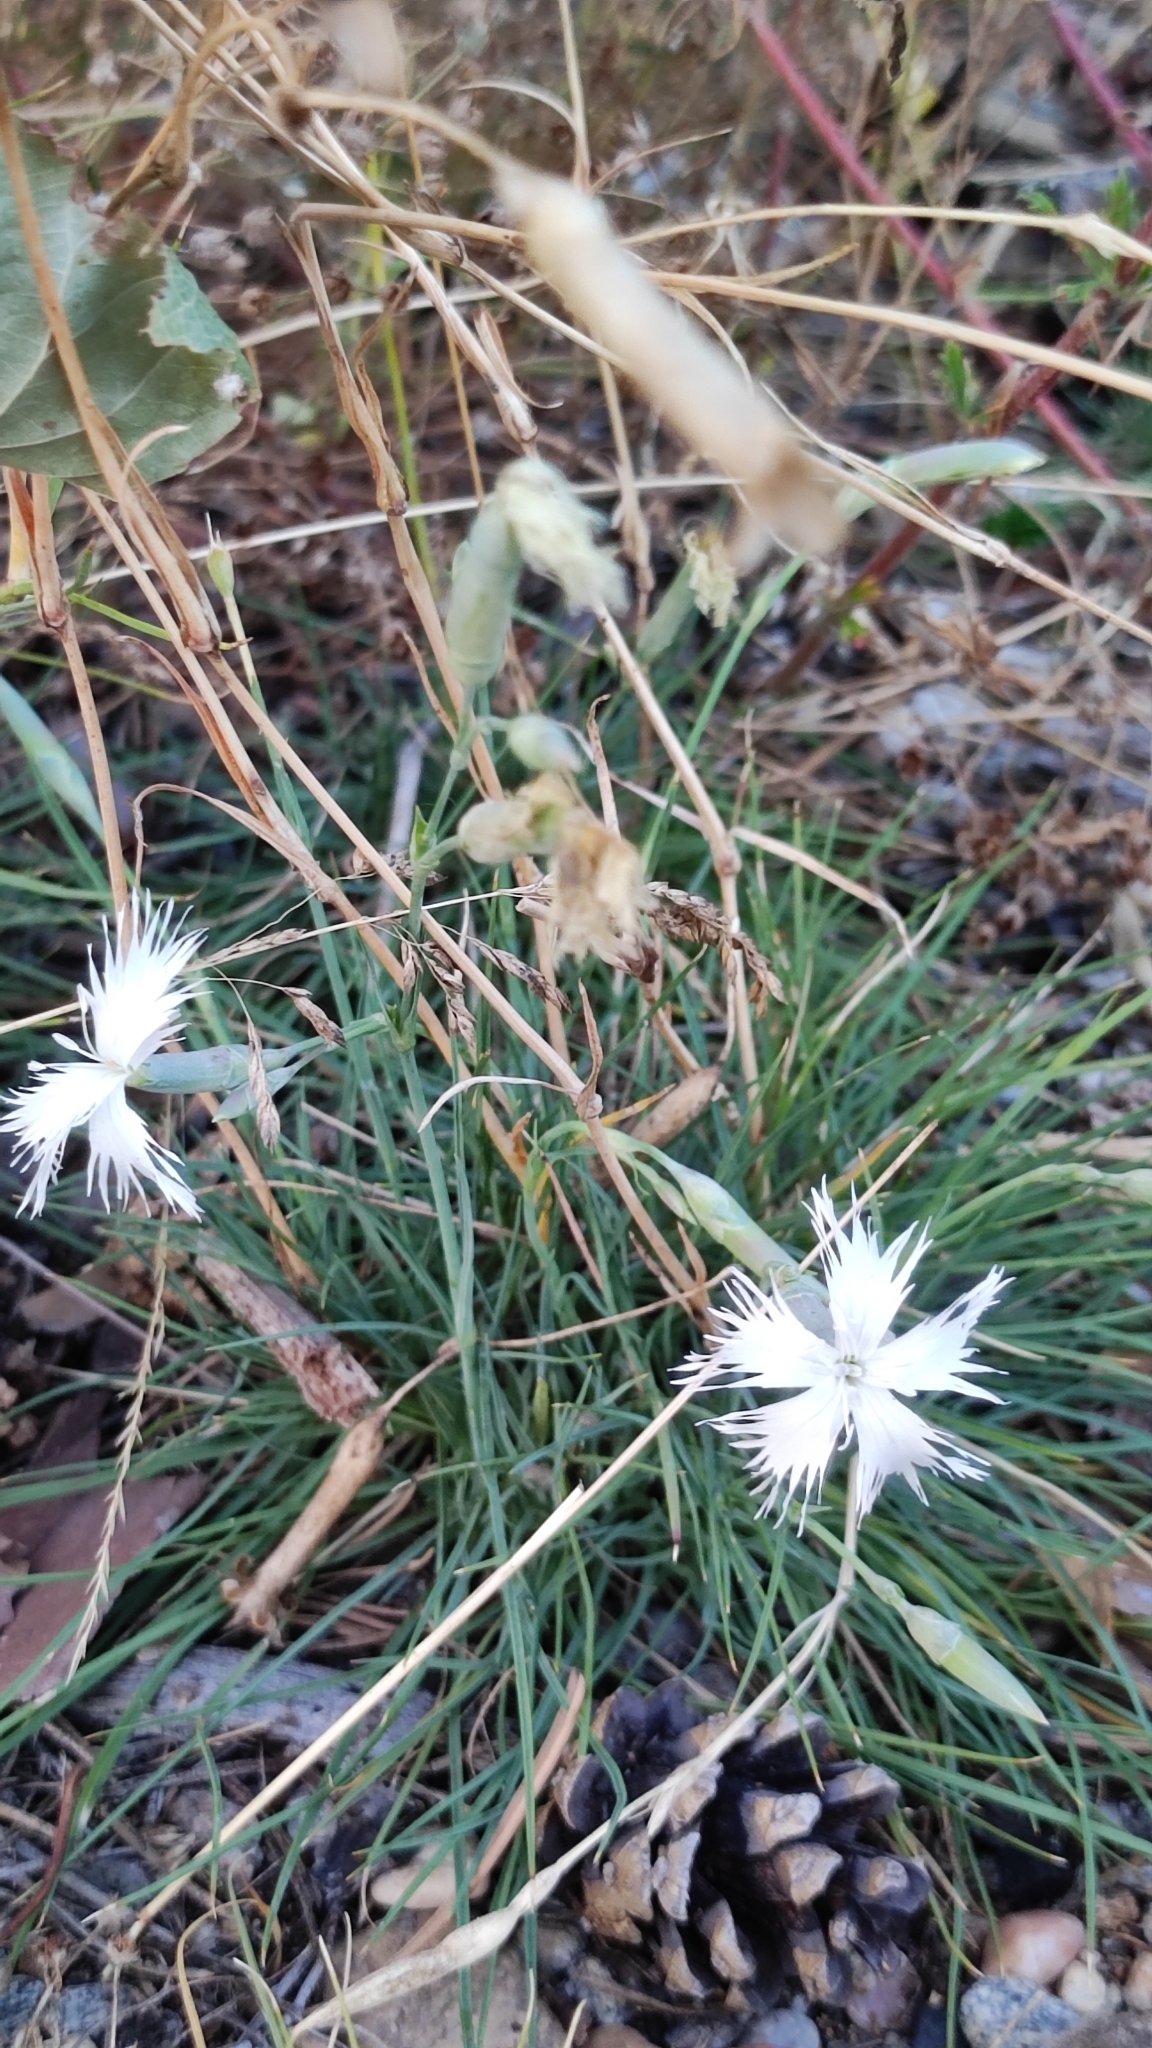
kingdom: Plantae
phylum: Tracheophyta
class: Magnoliopsida
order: Caryophyllales
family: Caryophyllaceae
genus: Dianthus
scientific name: Dianthus acicularis
